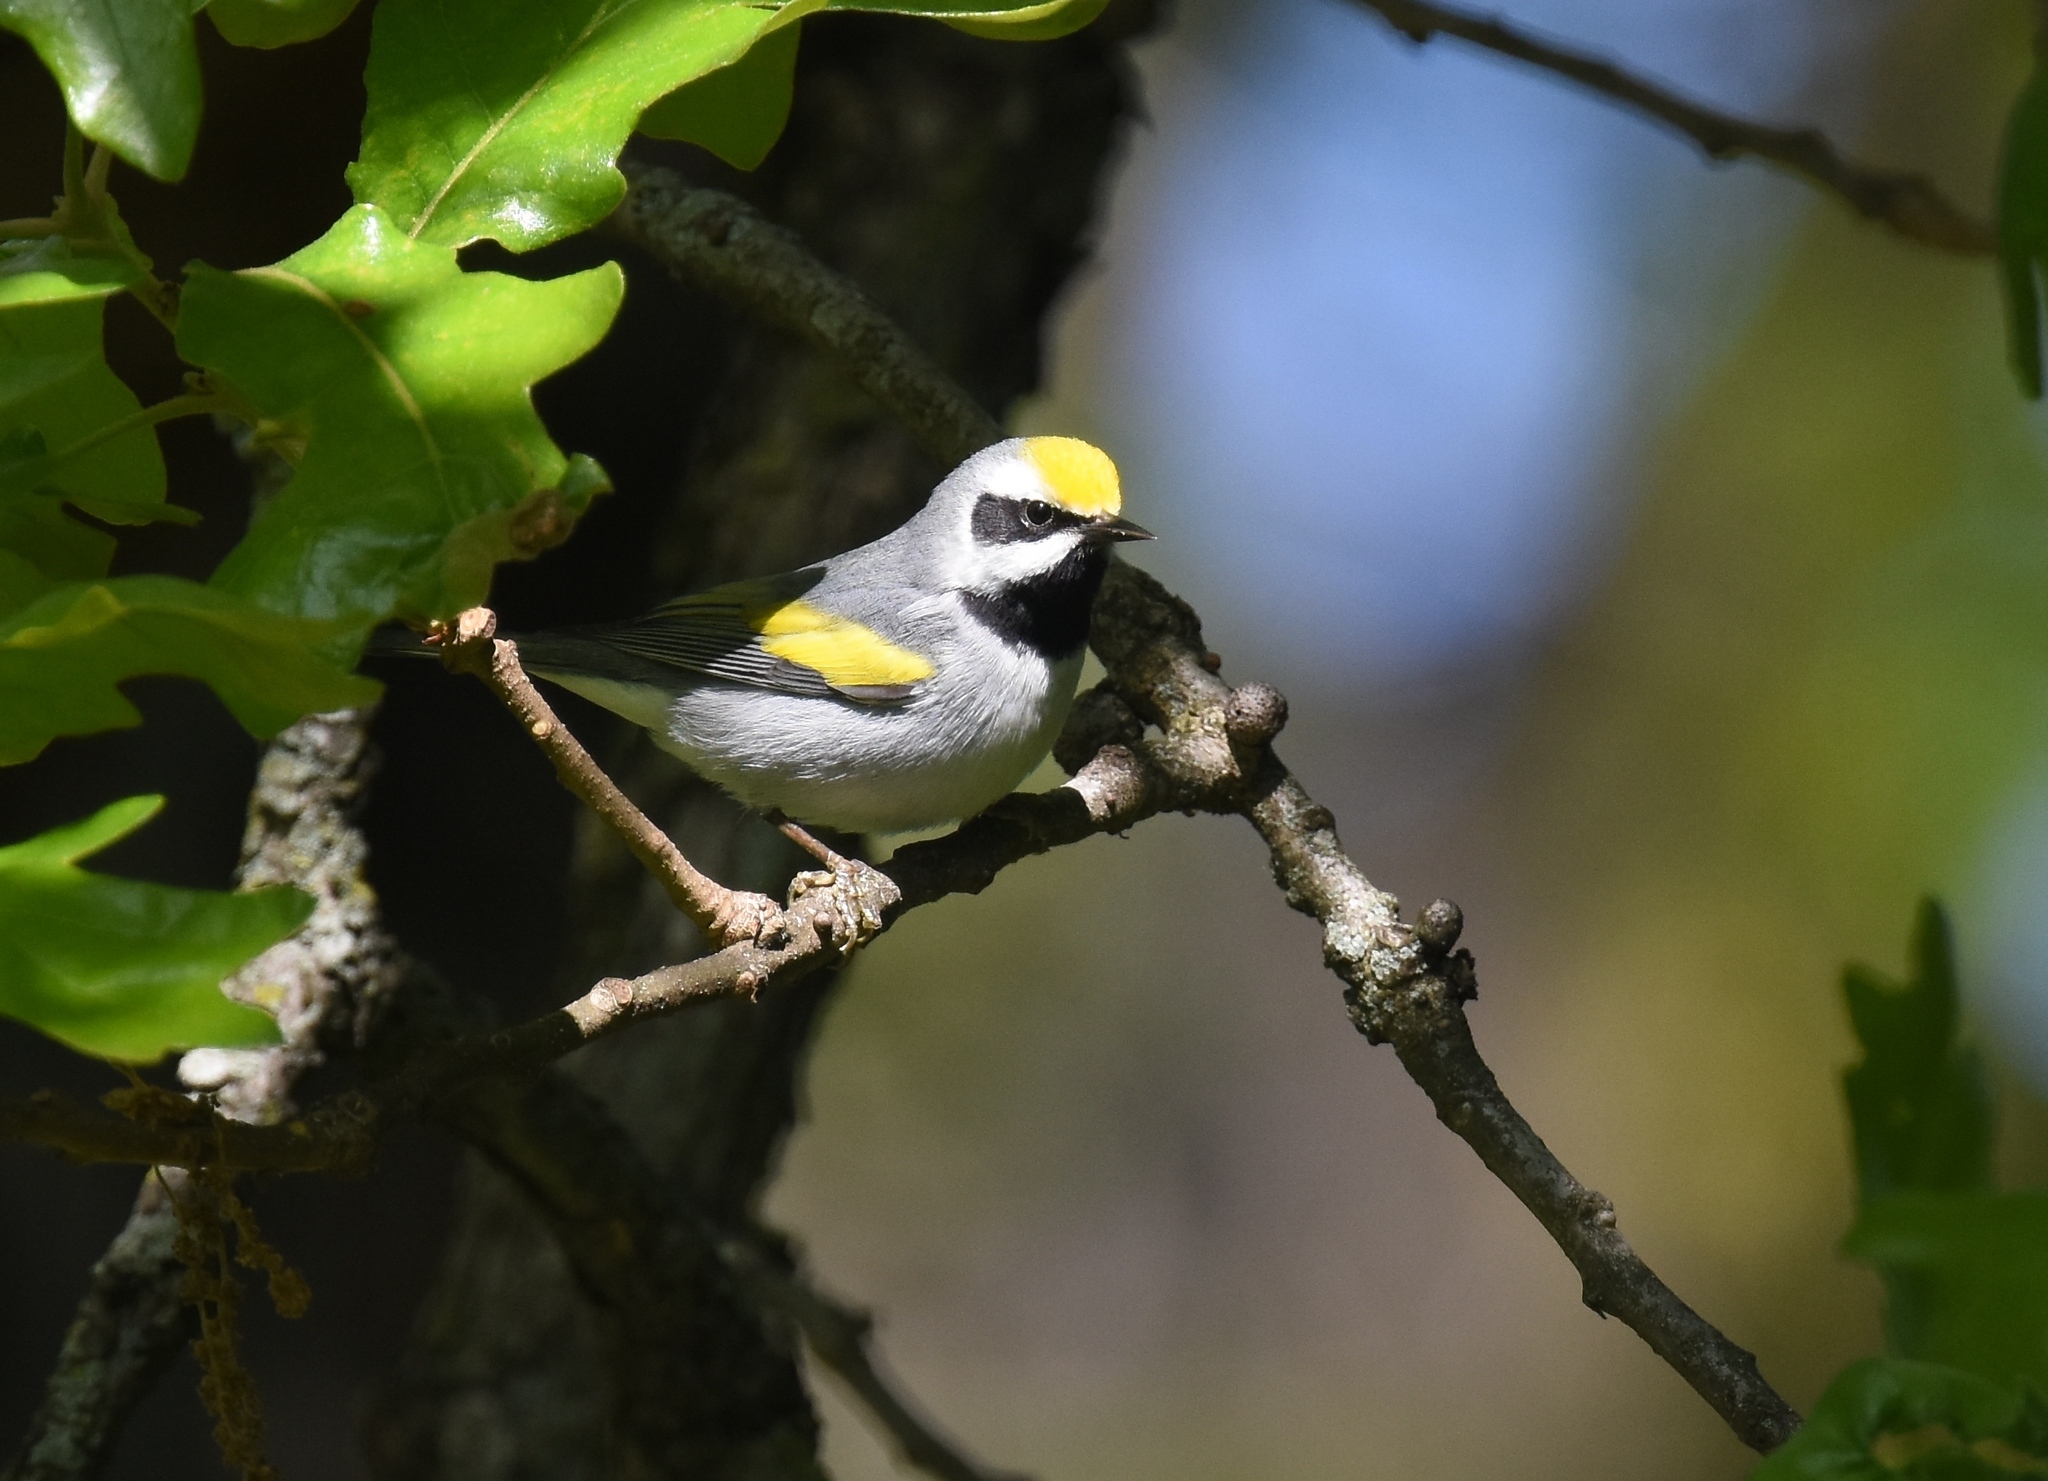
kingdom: Animalia
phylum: Chordata
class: Aves
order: Passeriformes
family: Parulidae
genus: Vermivora
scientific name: Vermivora chrysoptera
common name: Golden-winged warbler
